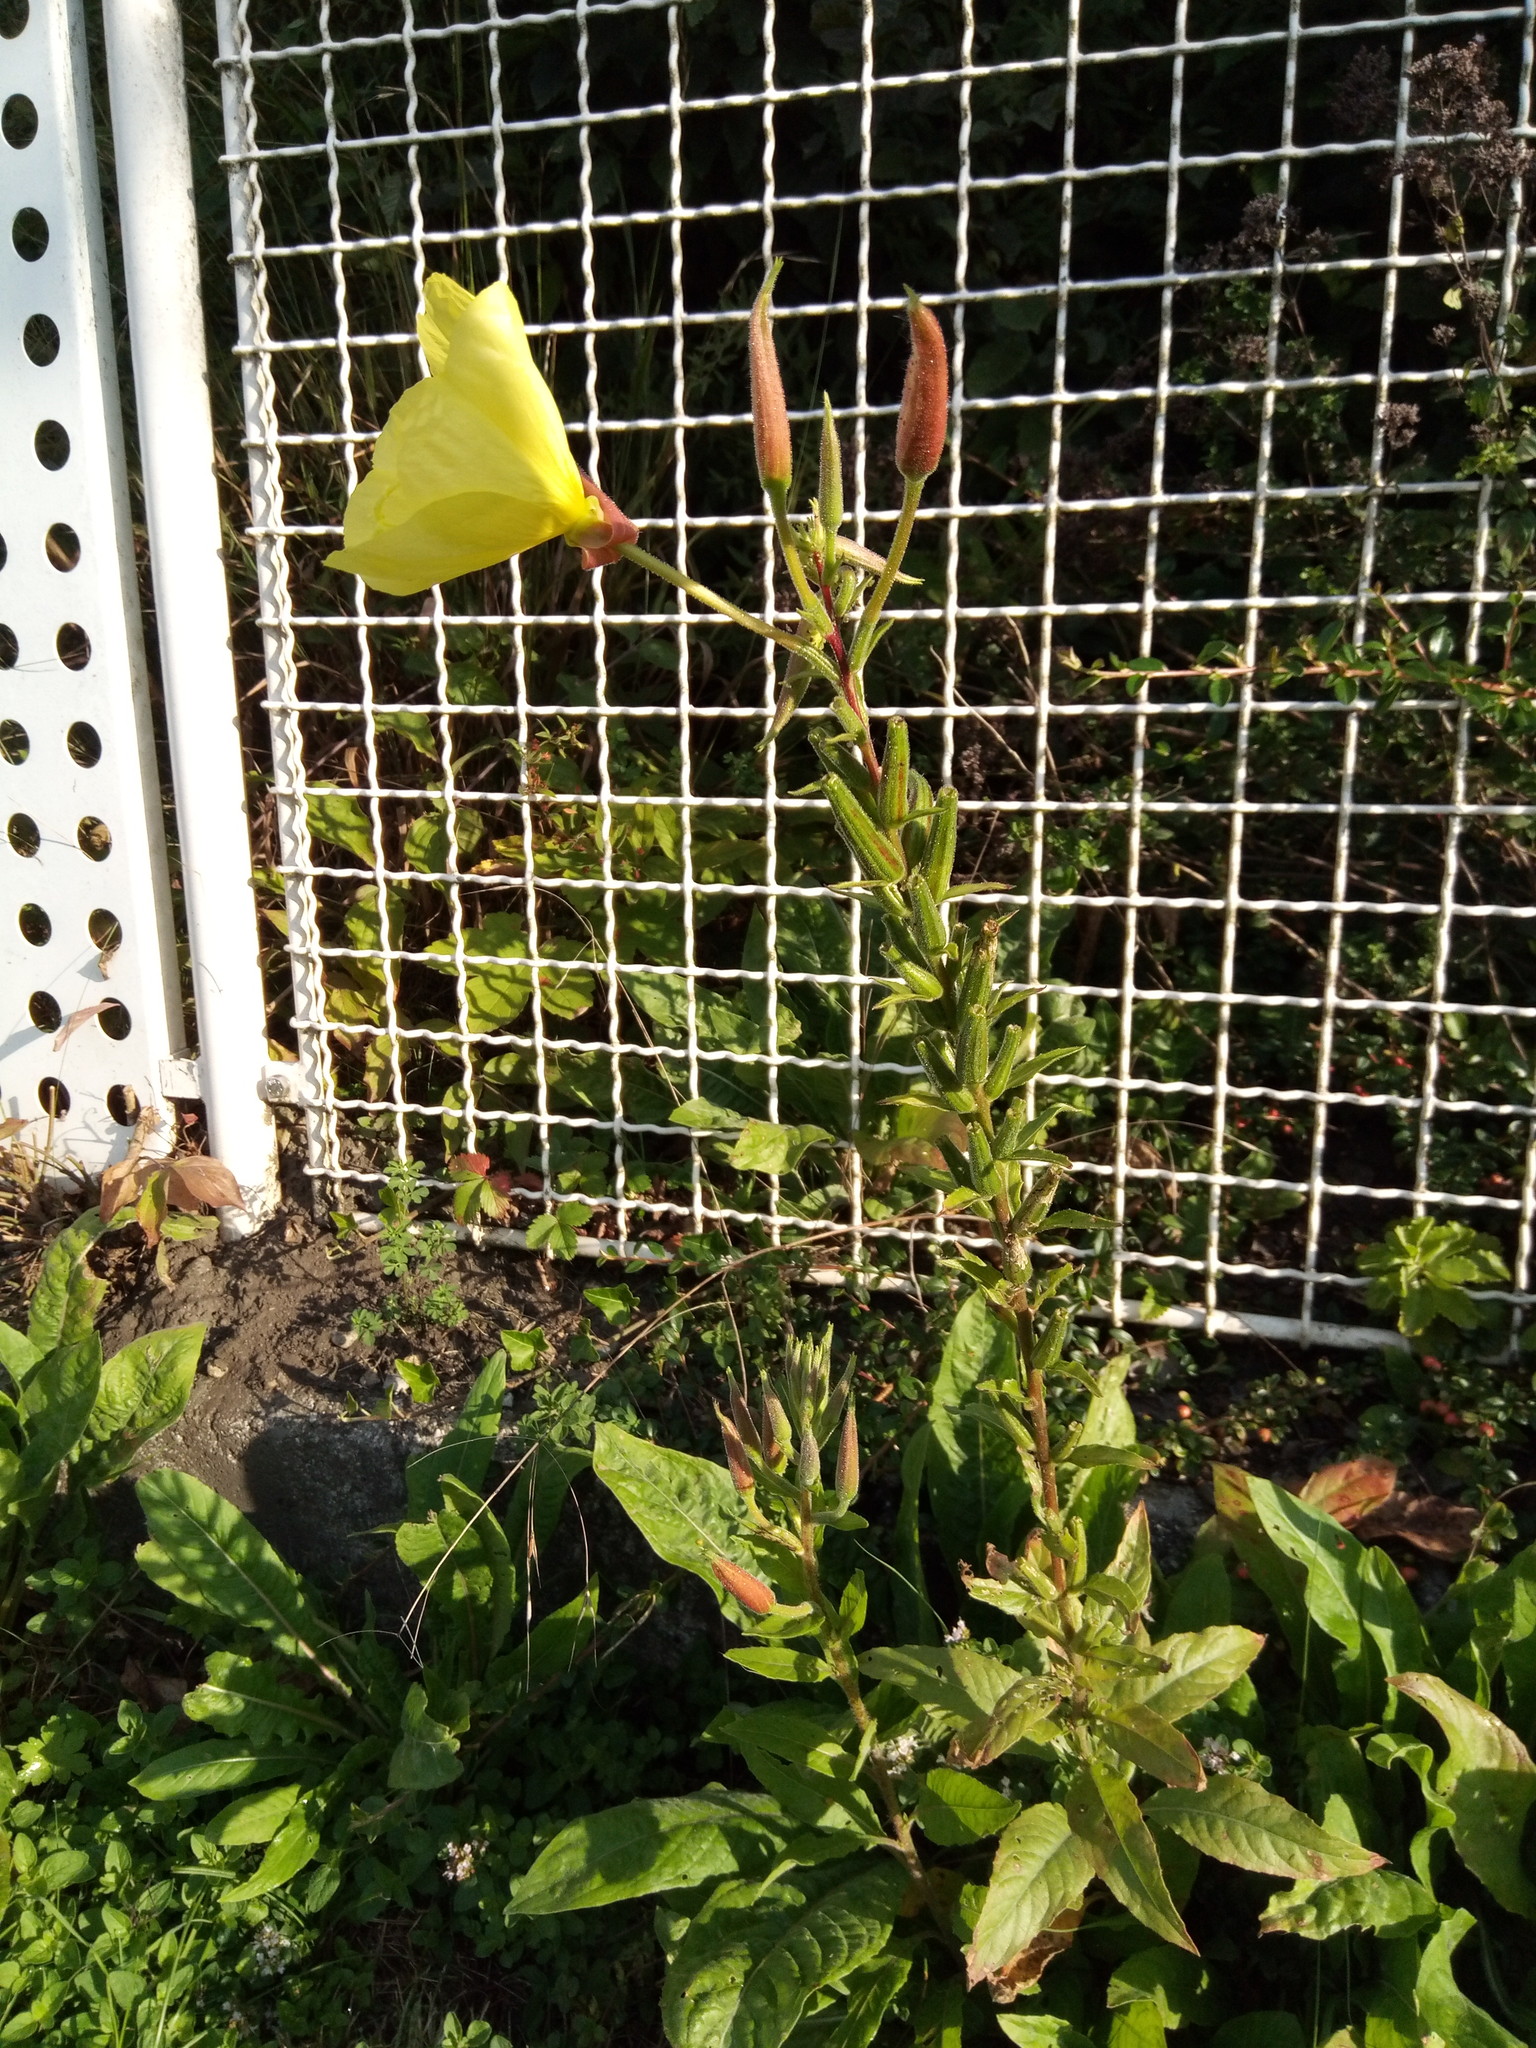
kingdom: Plantae
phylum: Tracheophyta
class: Magnoliopsida
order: Myrtales
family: Onagraceae
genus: Oenothera
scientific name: Oenothera glazioviana
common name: Large-flowered evening-primrose
